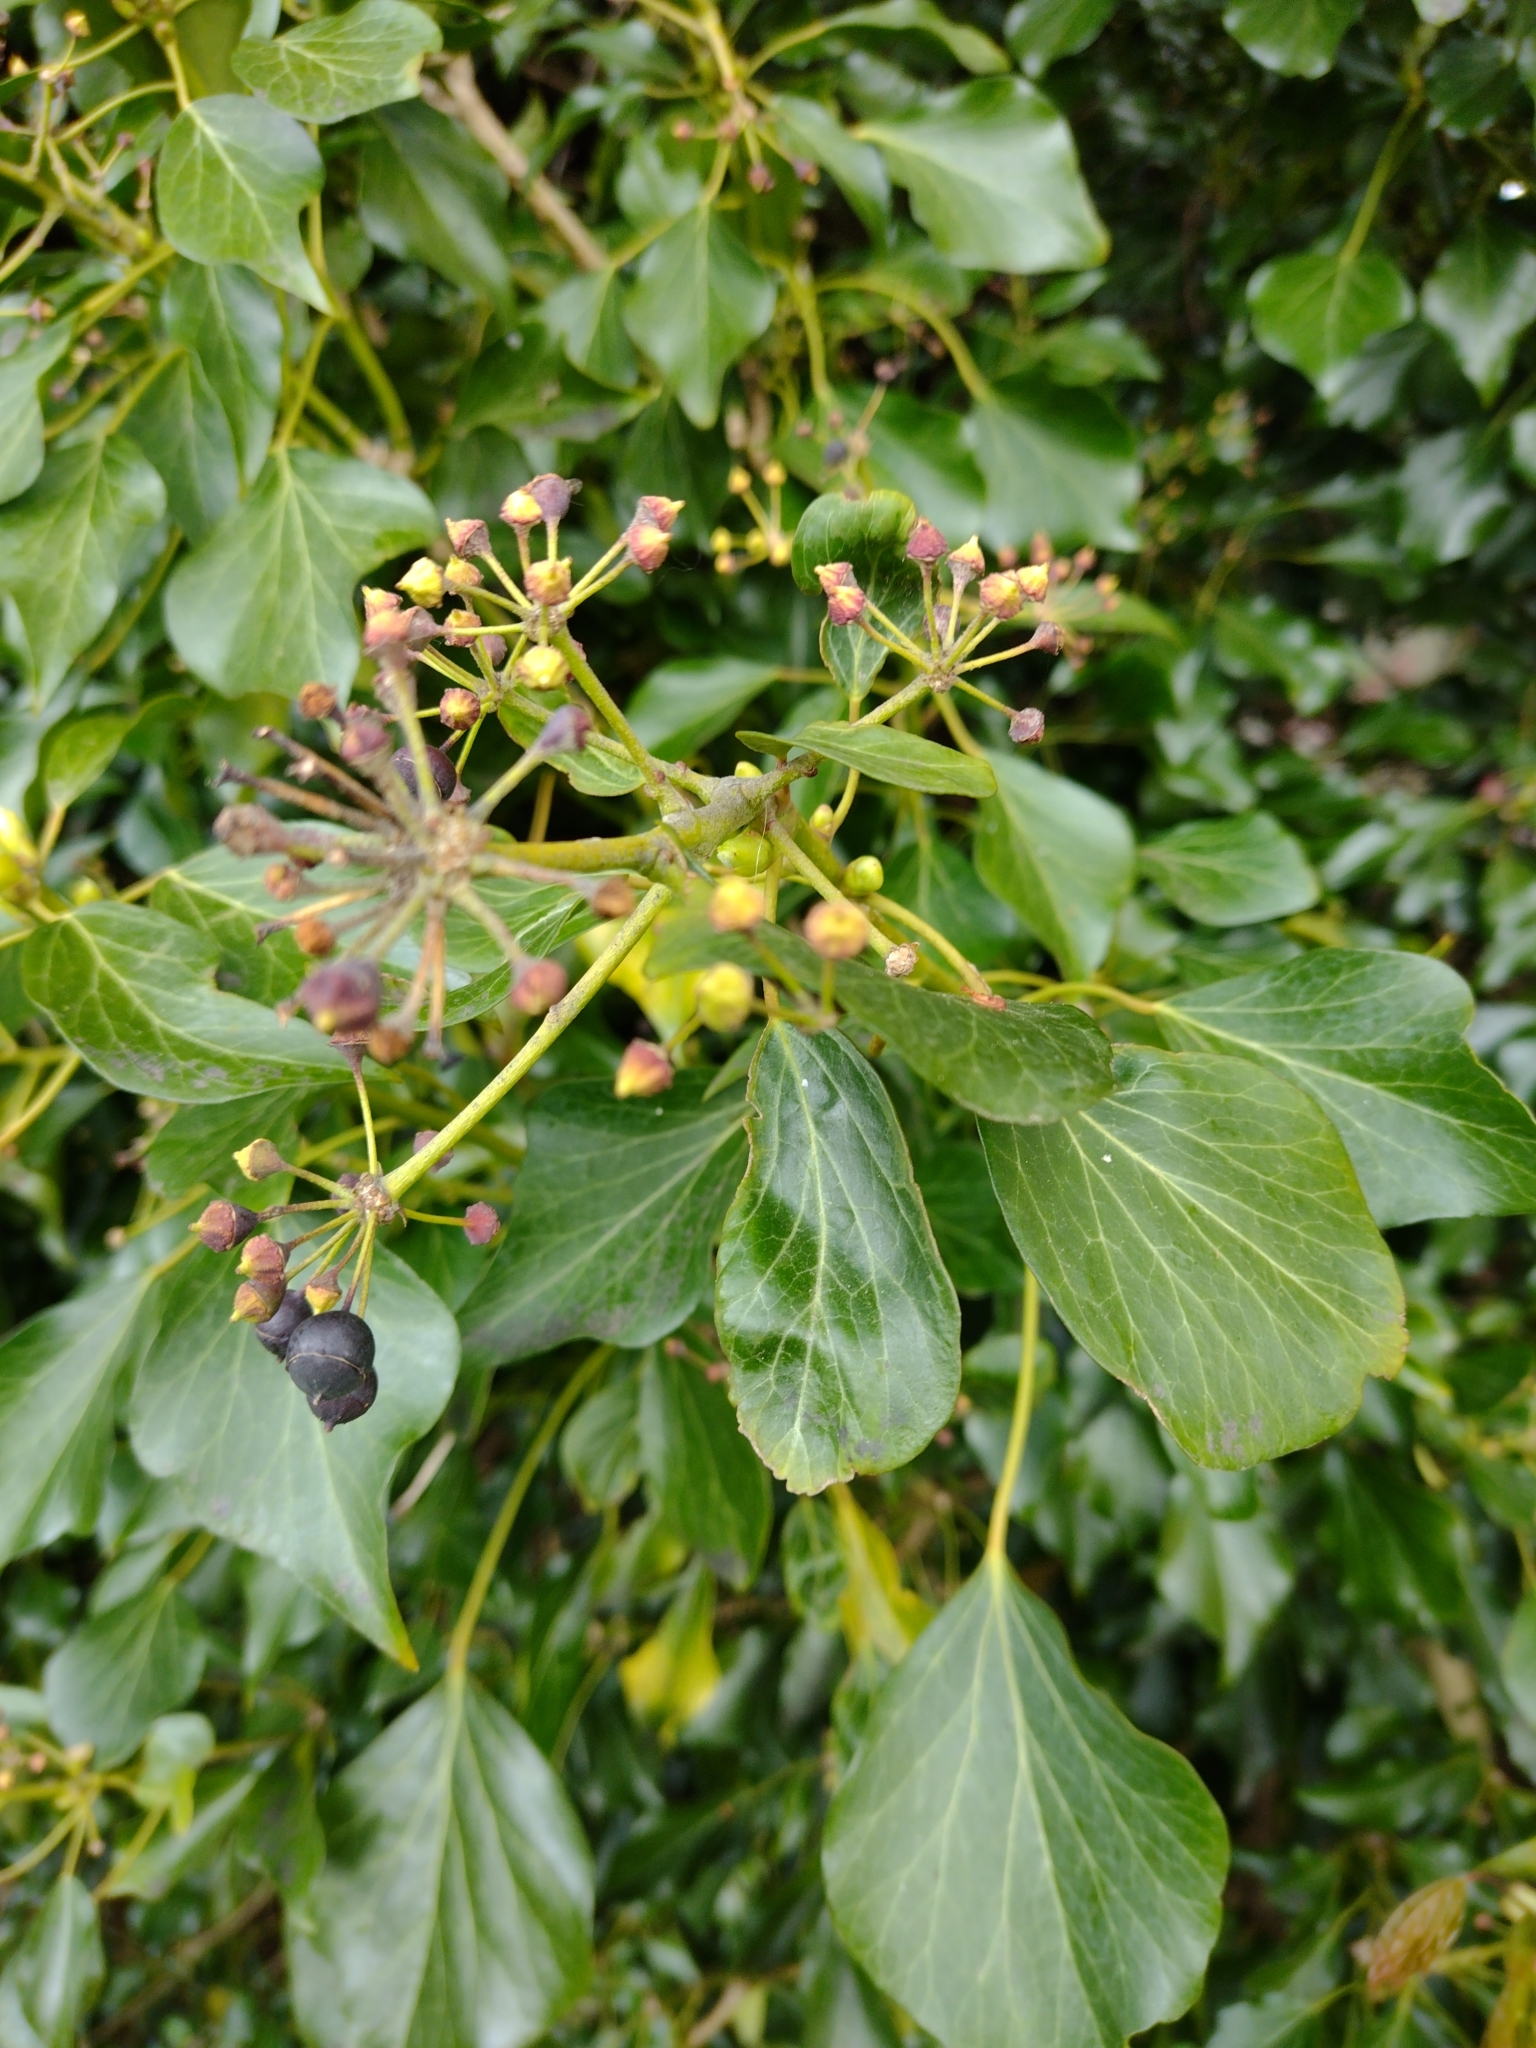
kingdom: Plantae
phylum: Tracheophyta
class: Magnoliopsida
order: Apiales
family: Araliaceae
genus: Hedera
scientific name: Hedera helix
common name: Ivy
